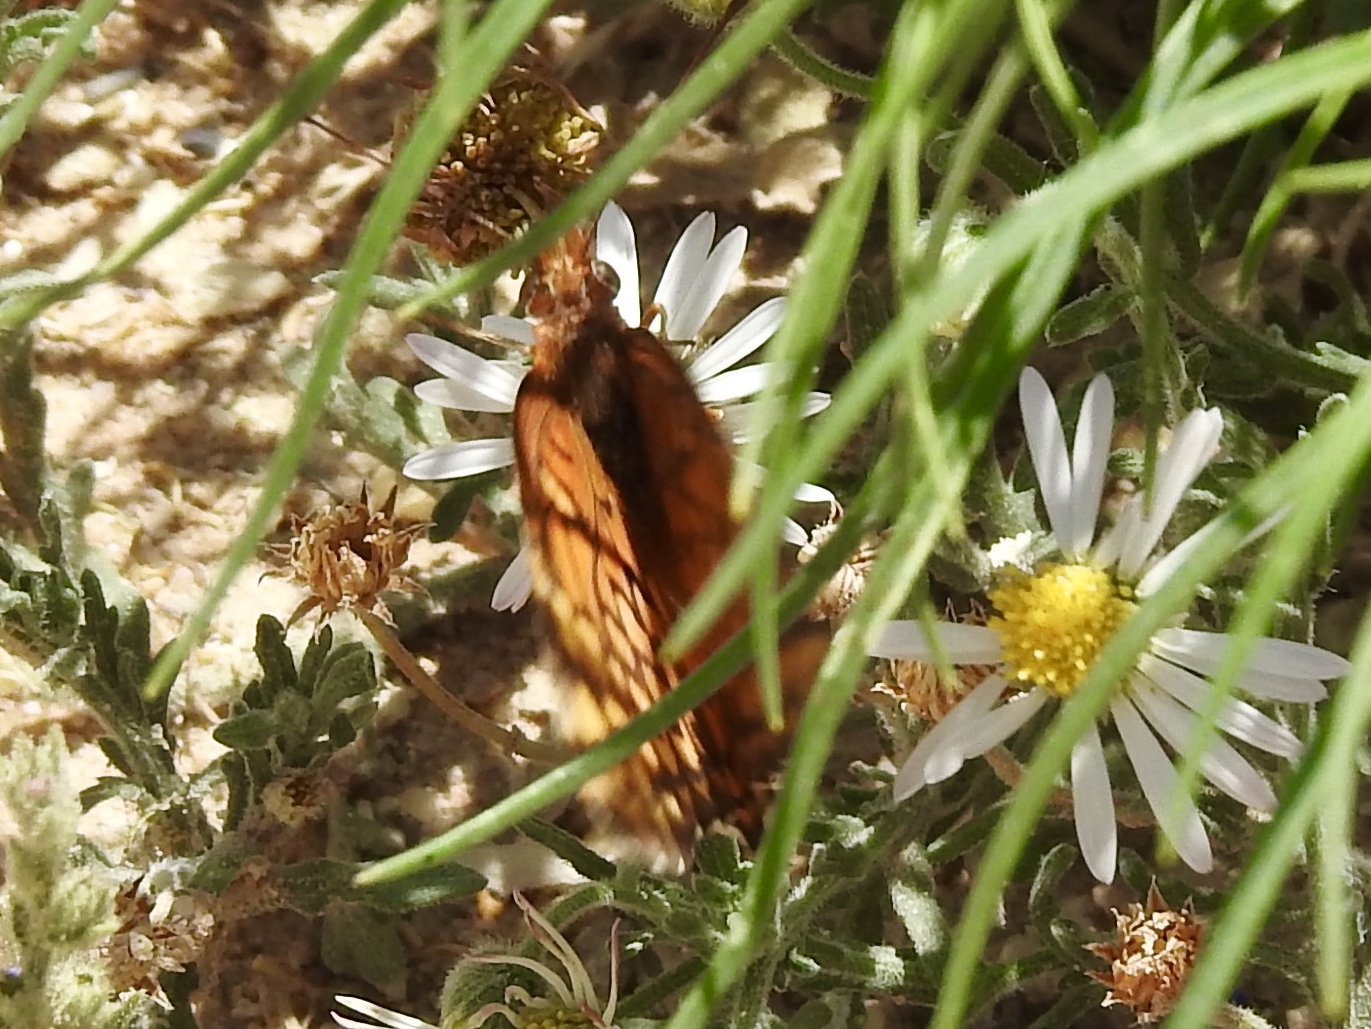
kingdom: Animalia
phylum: Arthropoda
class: Insecta
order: Lepidoptera
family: Nymphalidae
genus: Euptoieta
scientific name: Euptoieta claudia
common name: Variegated fritillary
